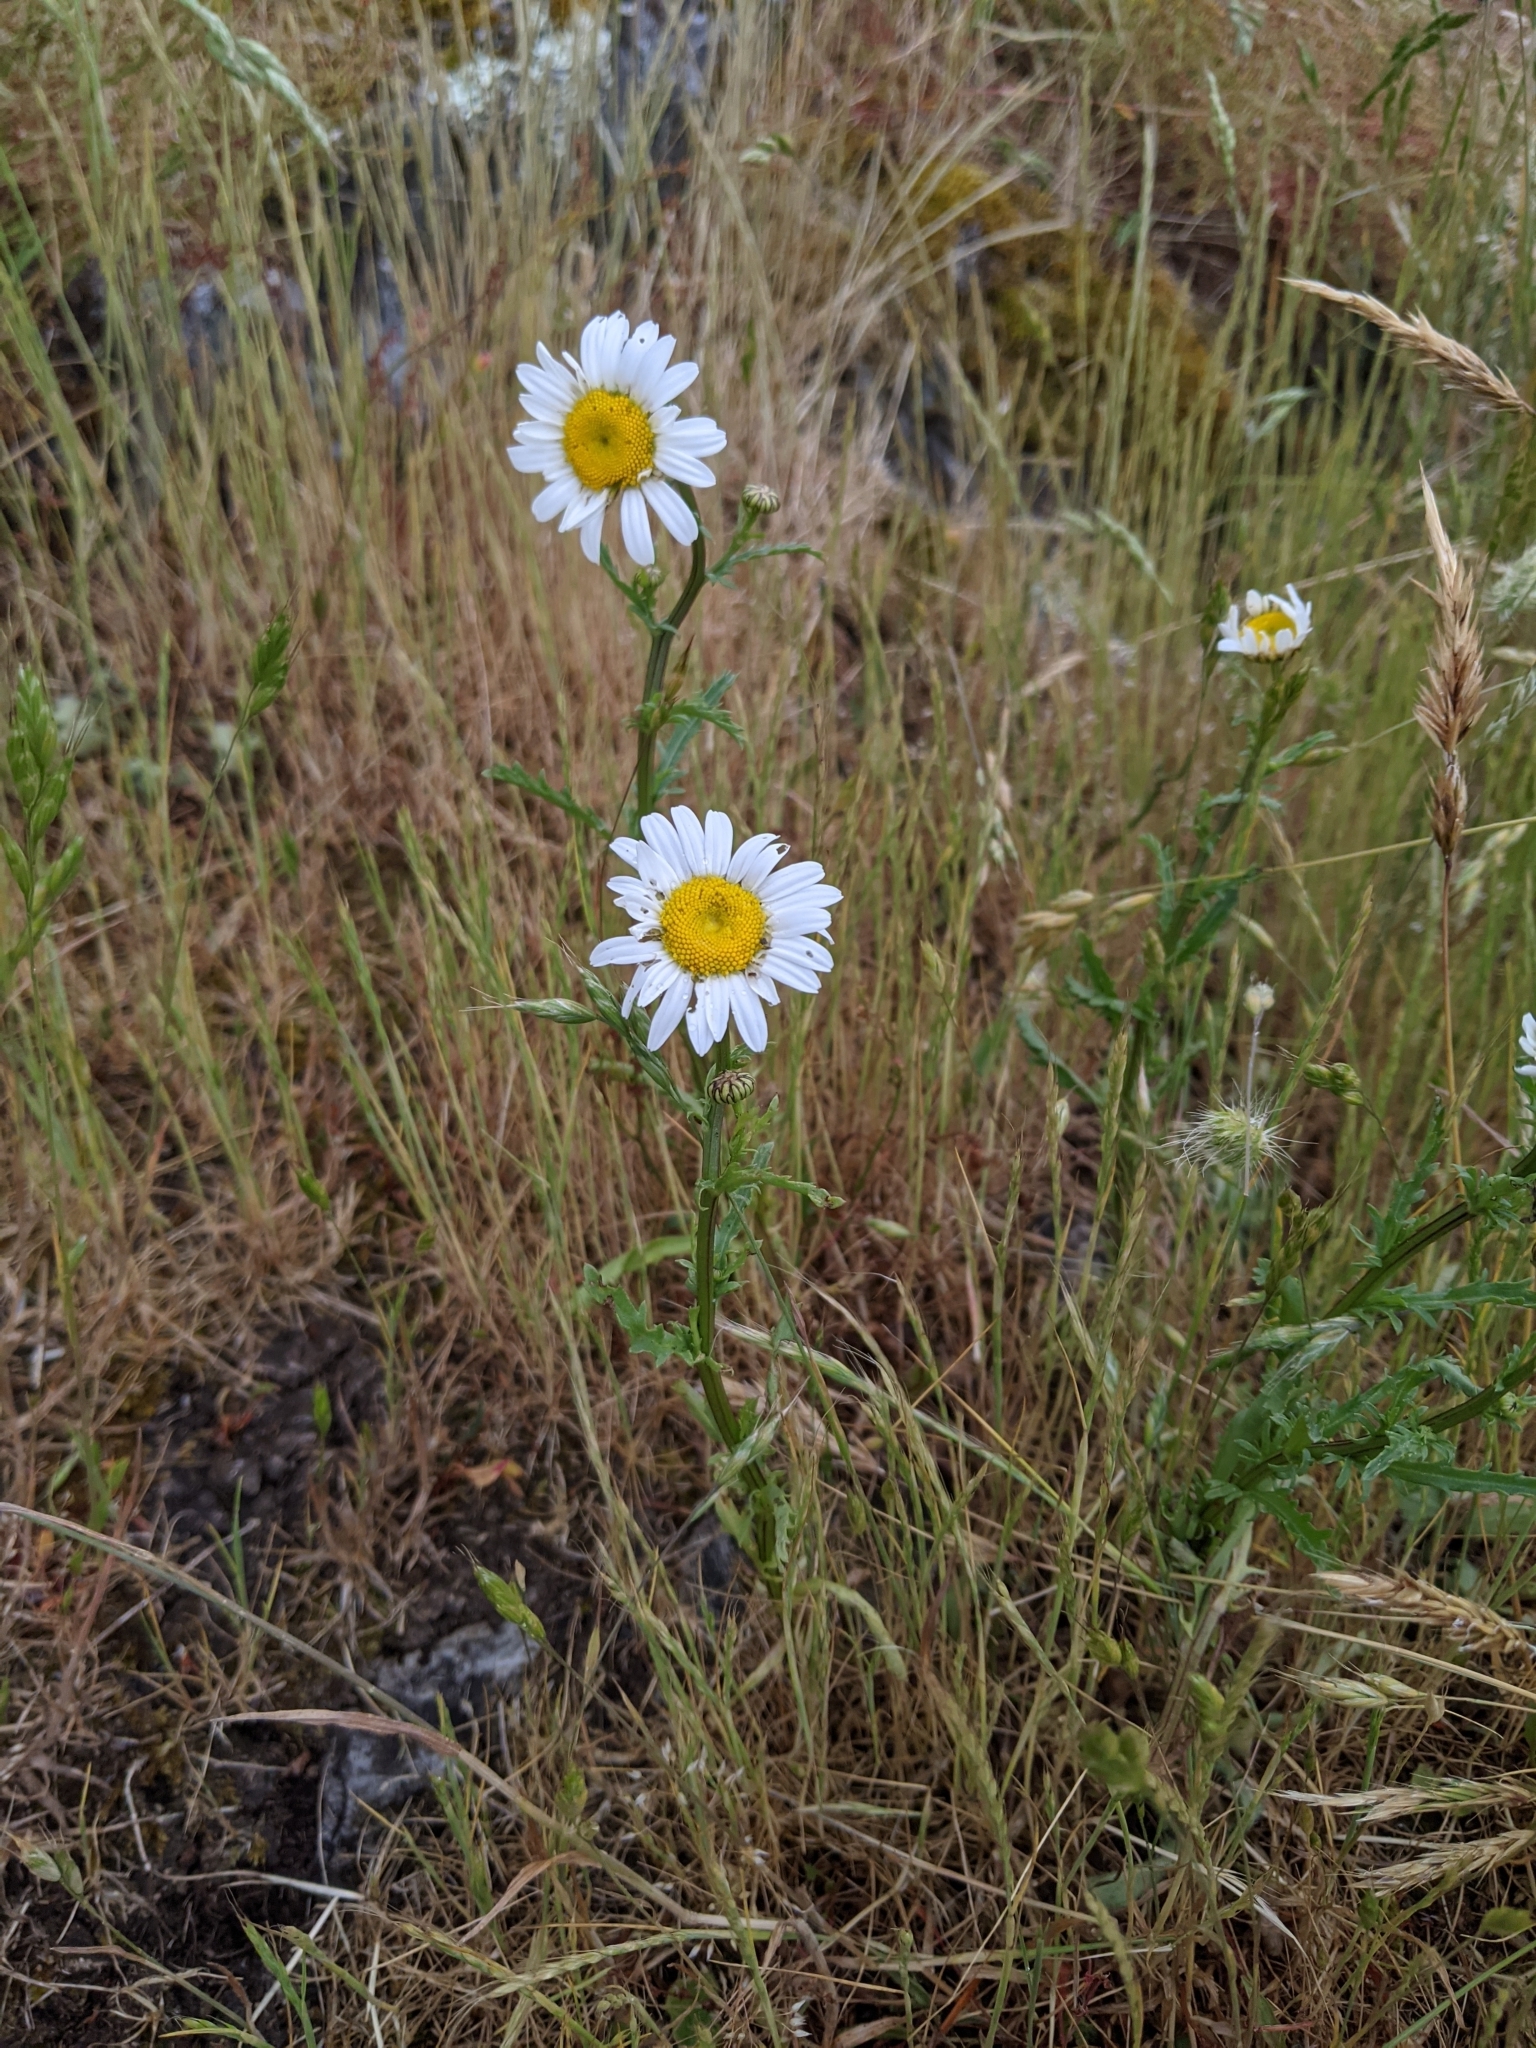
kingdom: Plantae
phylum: Tracheophyta
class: Magnoliopsida
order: Asterales
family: Asteraceae
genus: Leucanthemum
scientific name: Leucanthemum vulgare
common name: Oxeye daisy
